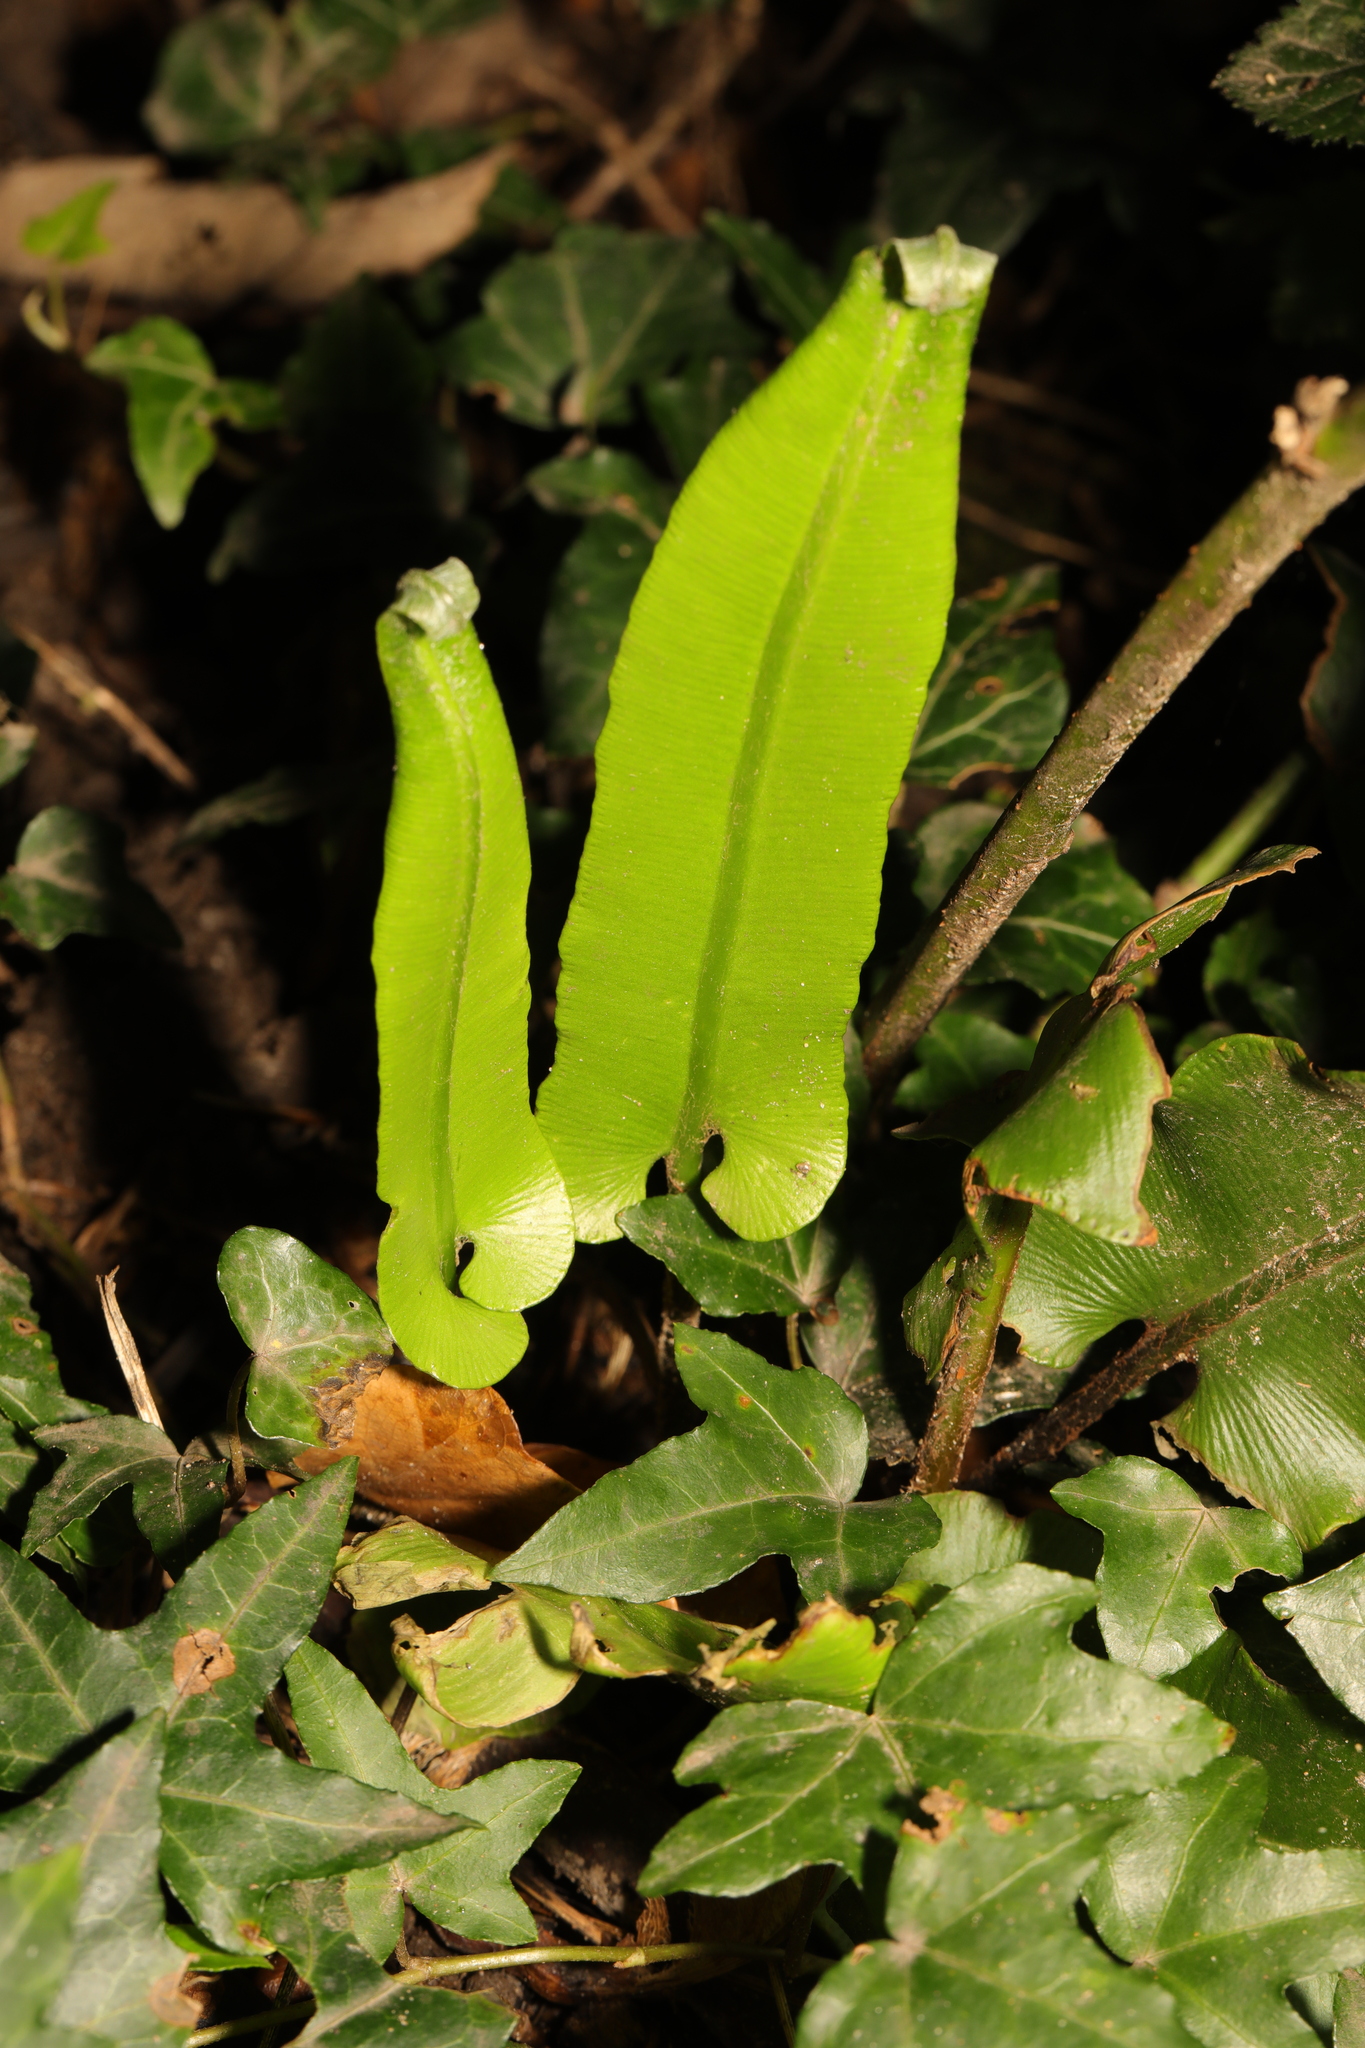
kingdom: Plantae
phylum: Tracheophyta
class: Polypodiopsida
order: Polypodiales
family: Aspleniaceae
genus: Asplenium
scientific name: Asplenium scolopendrium
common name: Hart's-tongue fern
